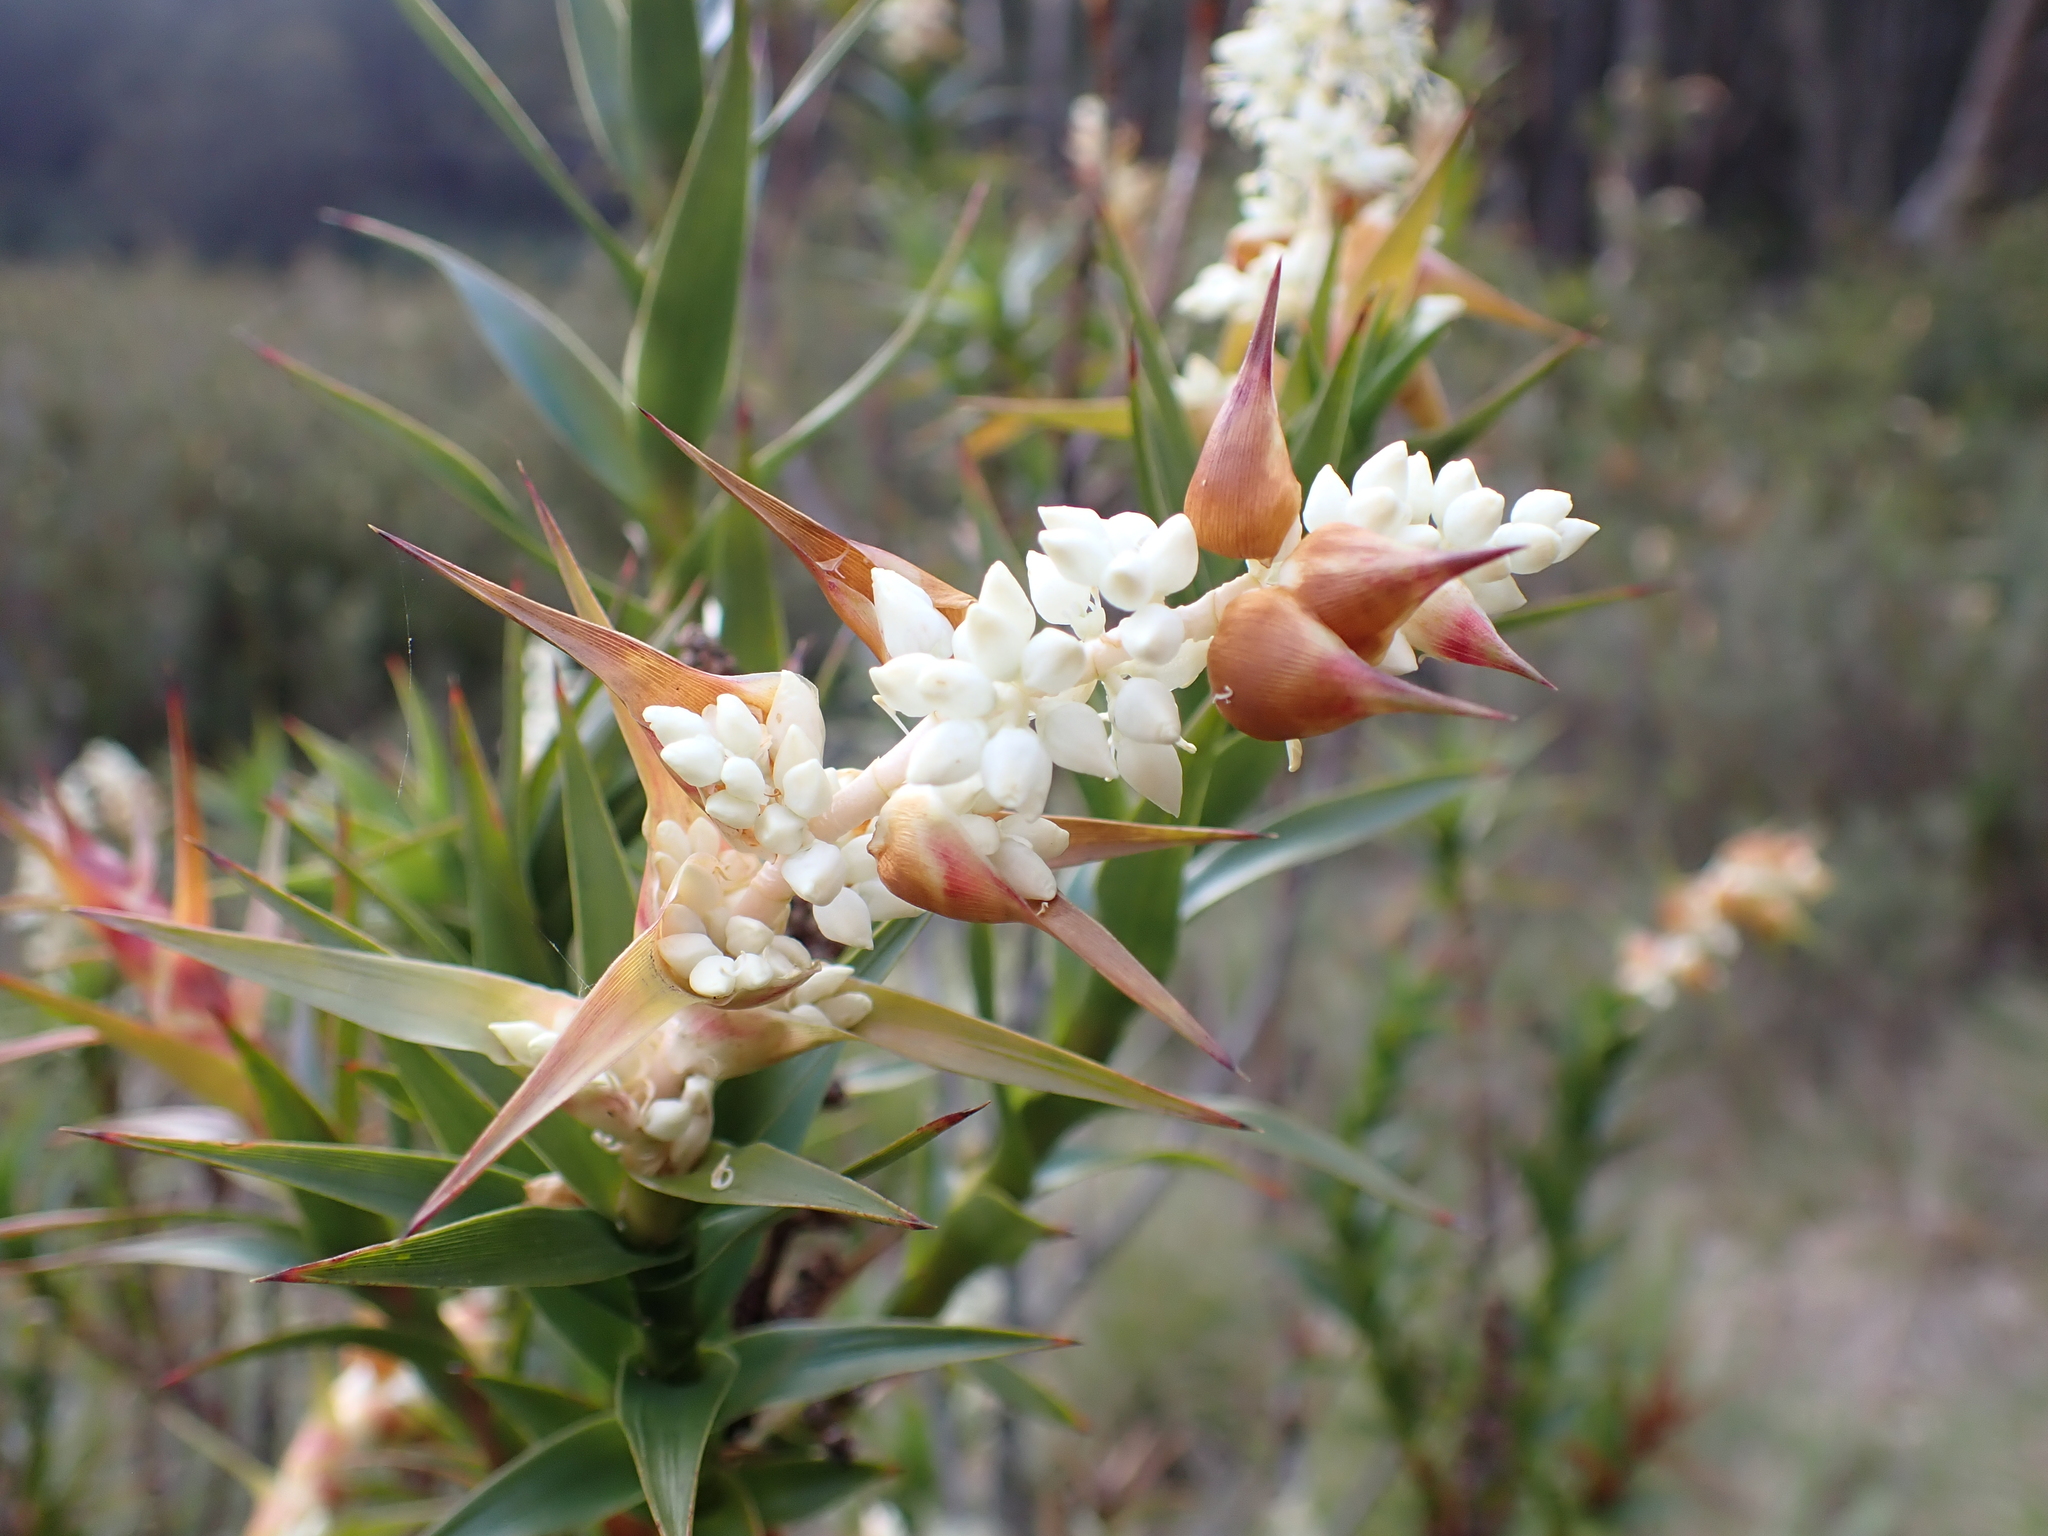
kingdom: Plantae
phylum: Tracheophyta
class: Magnoliopsida
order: Ericales
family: Ericaceae
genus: Dracophyllum
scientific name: Dracophyllum victorianum
